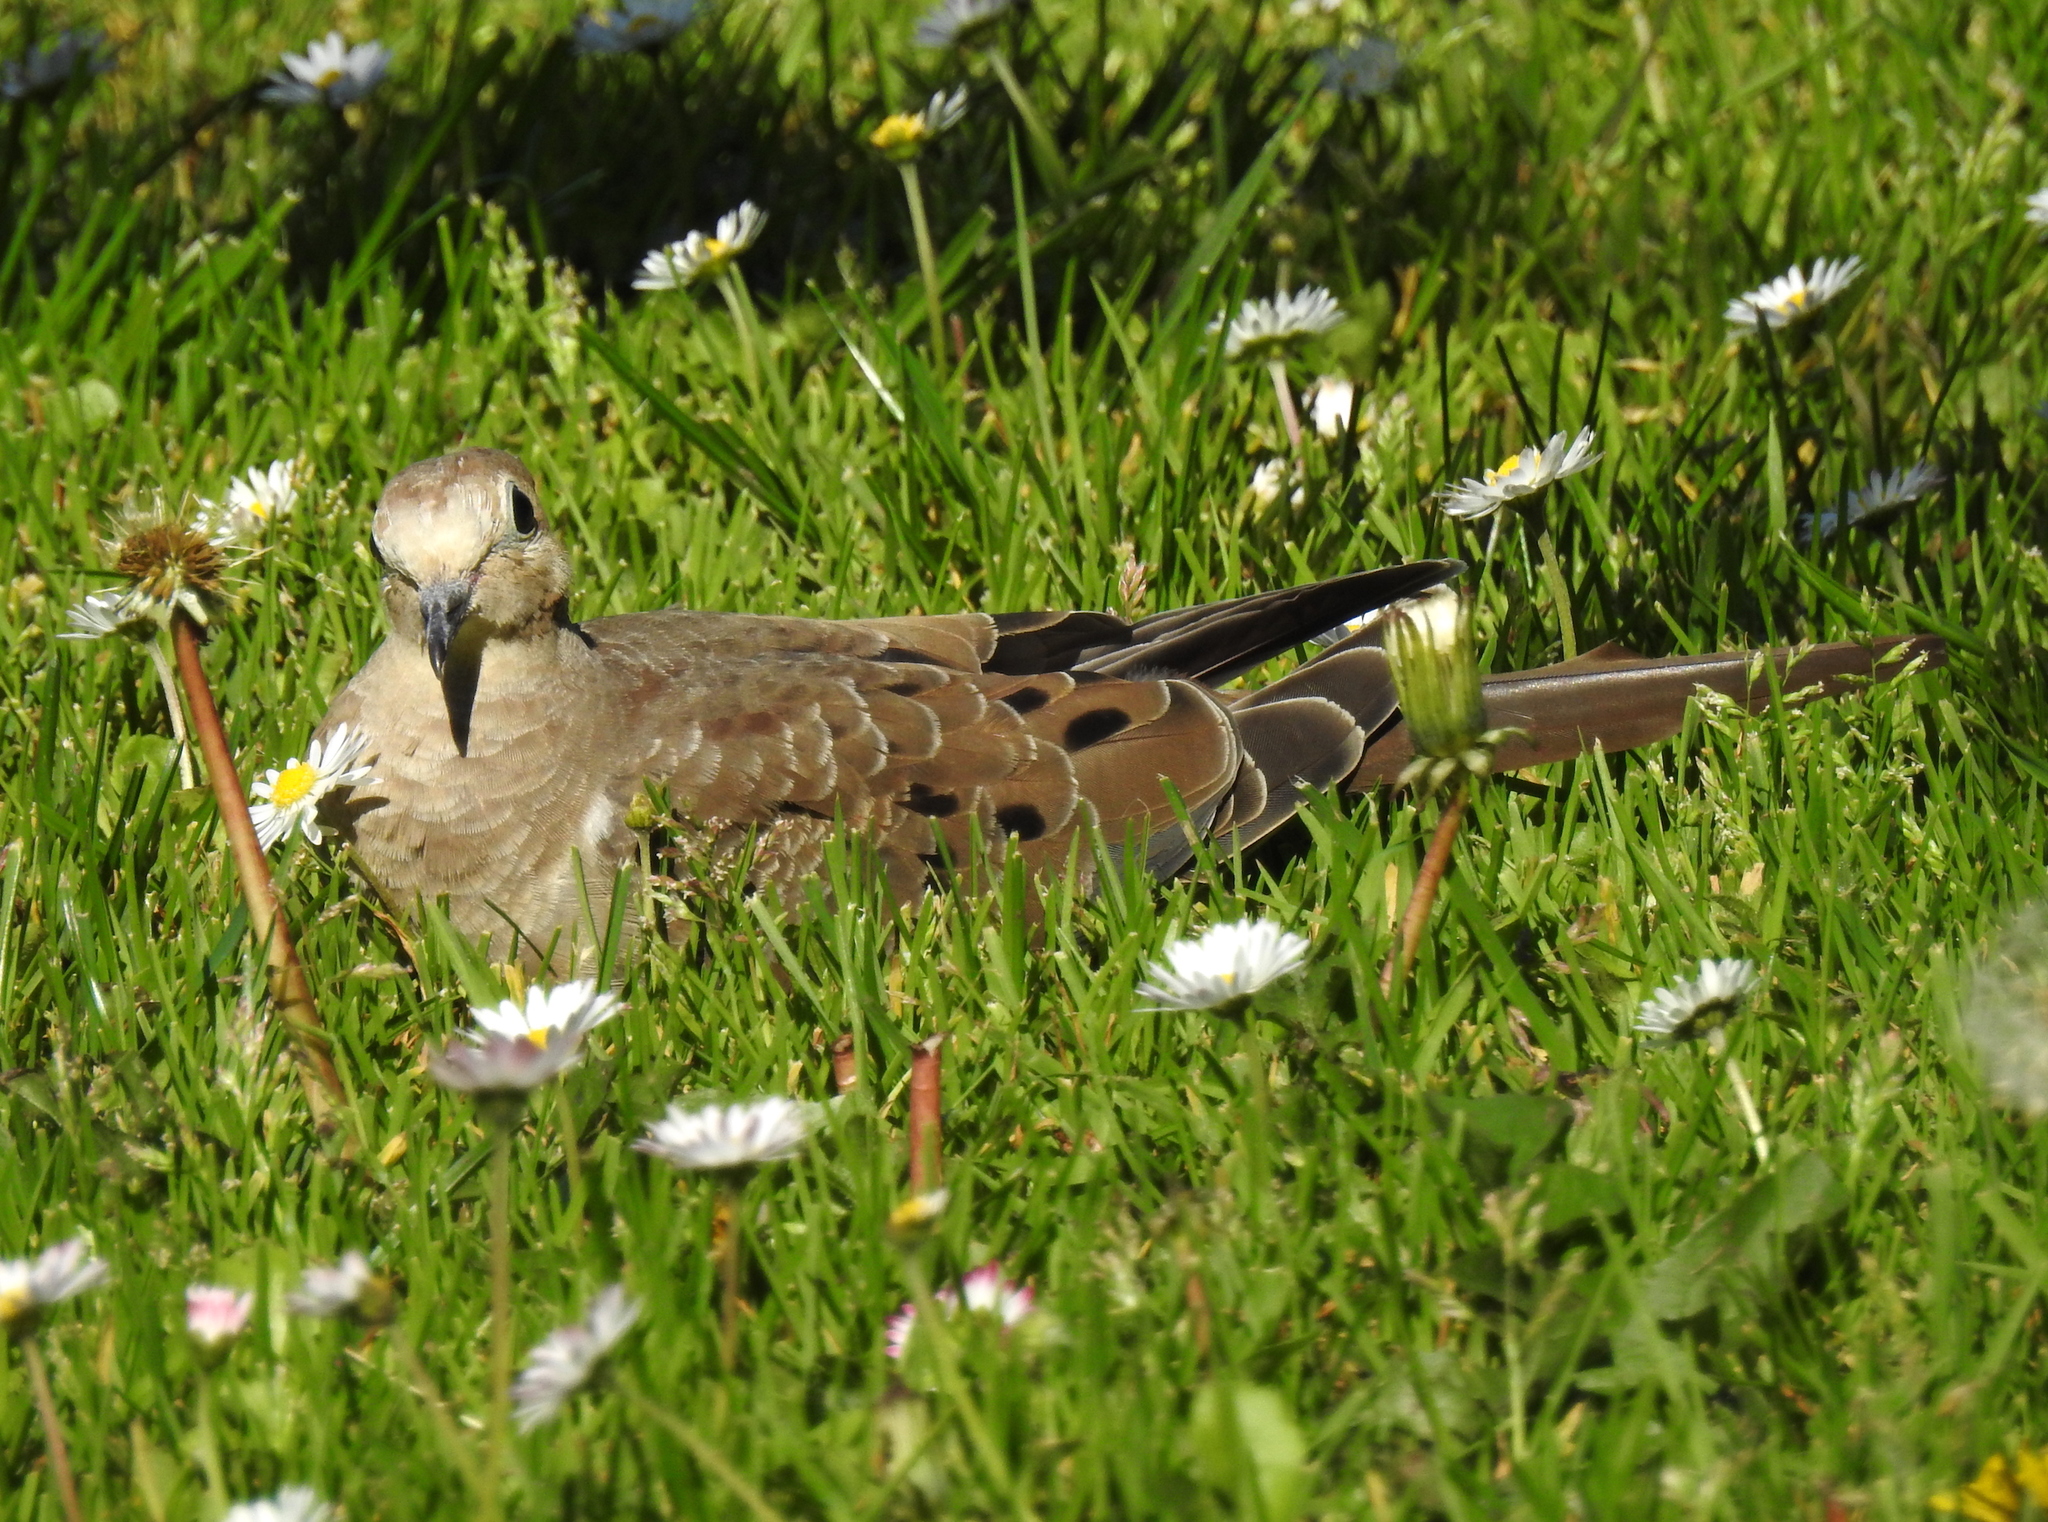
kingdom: Animalia
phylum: Chordata
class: Aves
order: Columbiformes
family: Columbidae
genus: Zenaida
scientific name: Zenaida macroura
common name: Mourning dove
